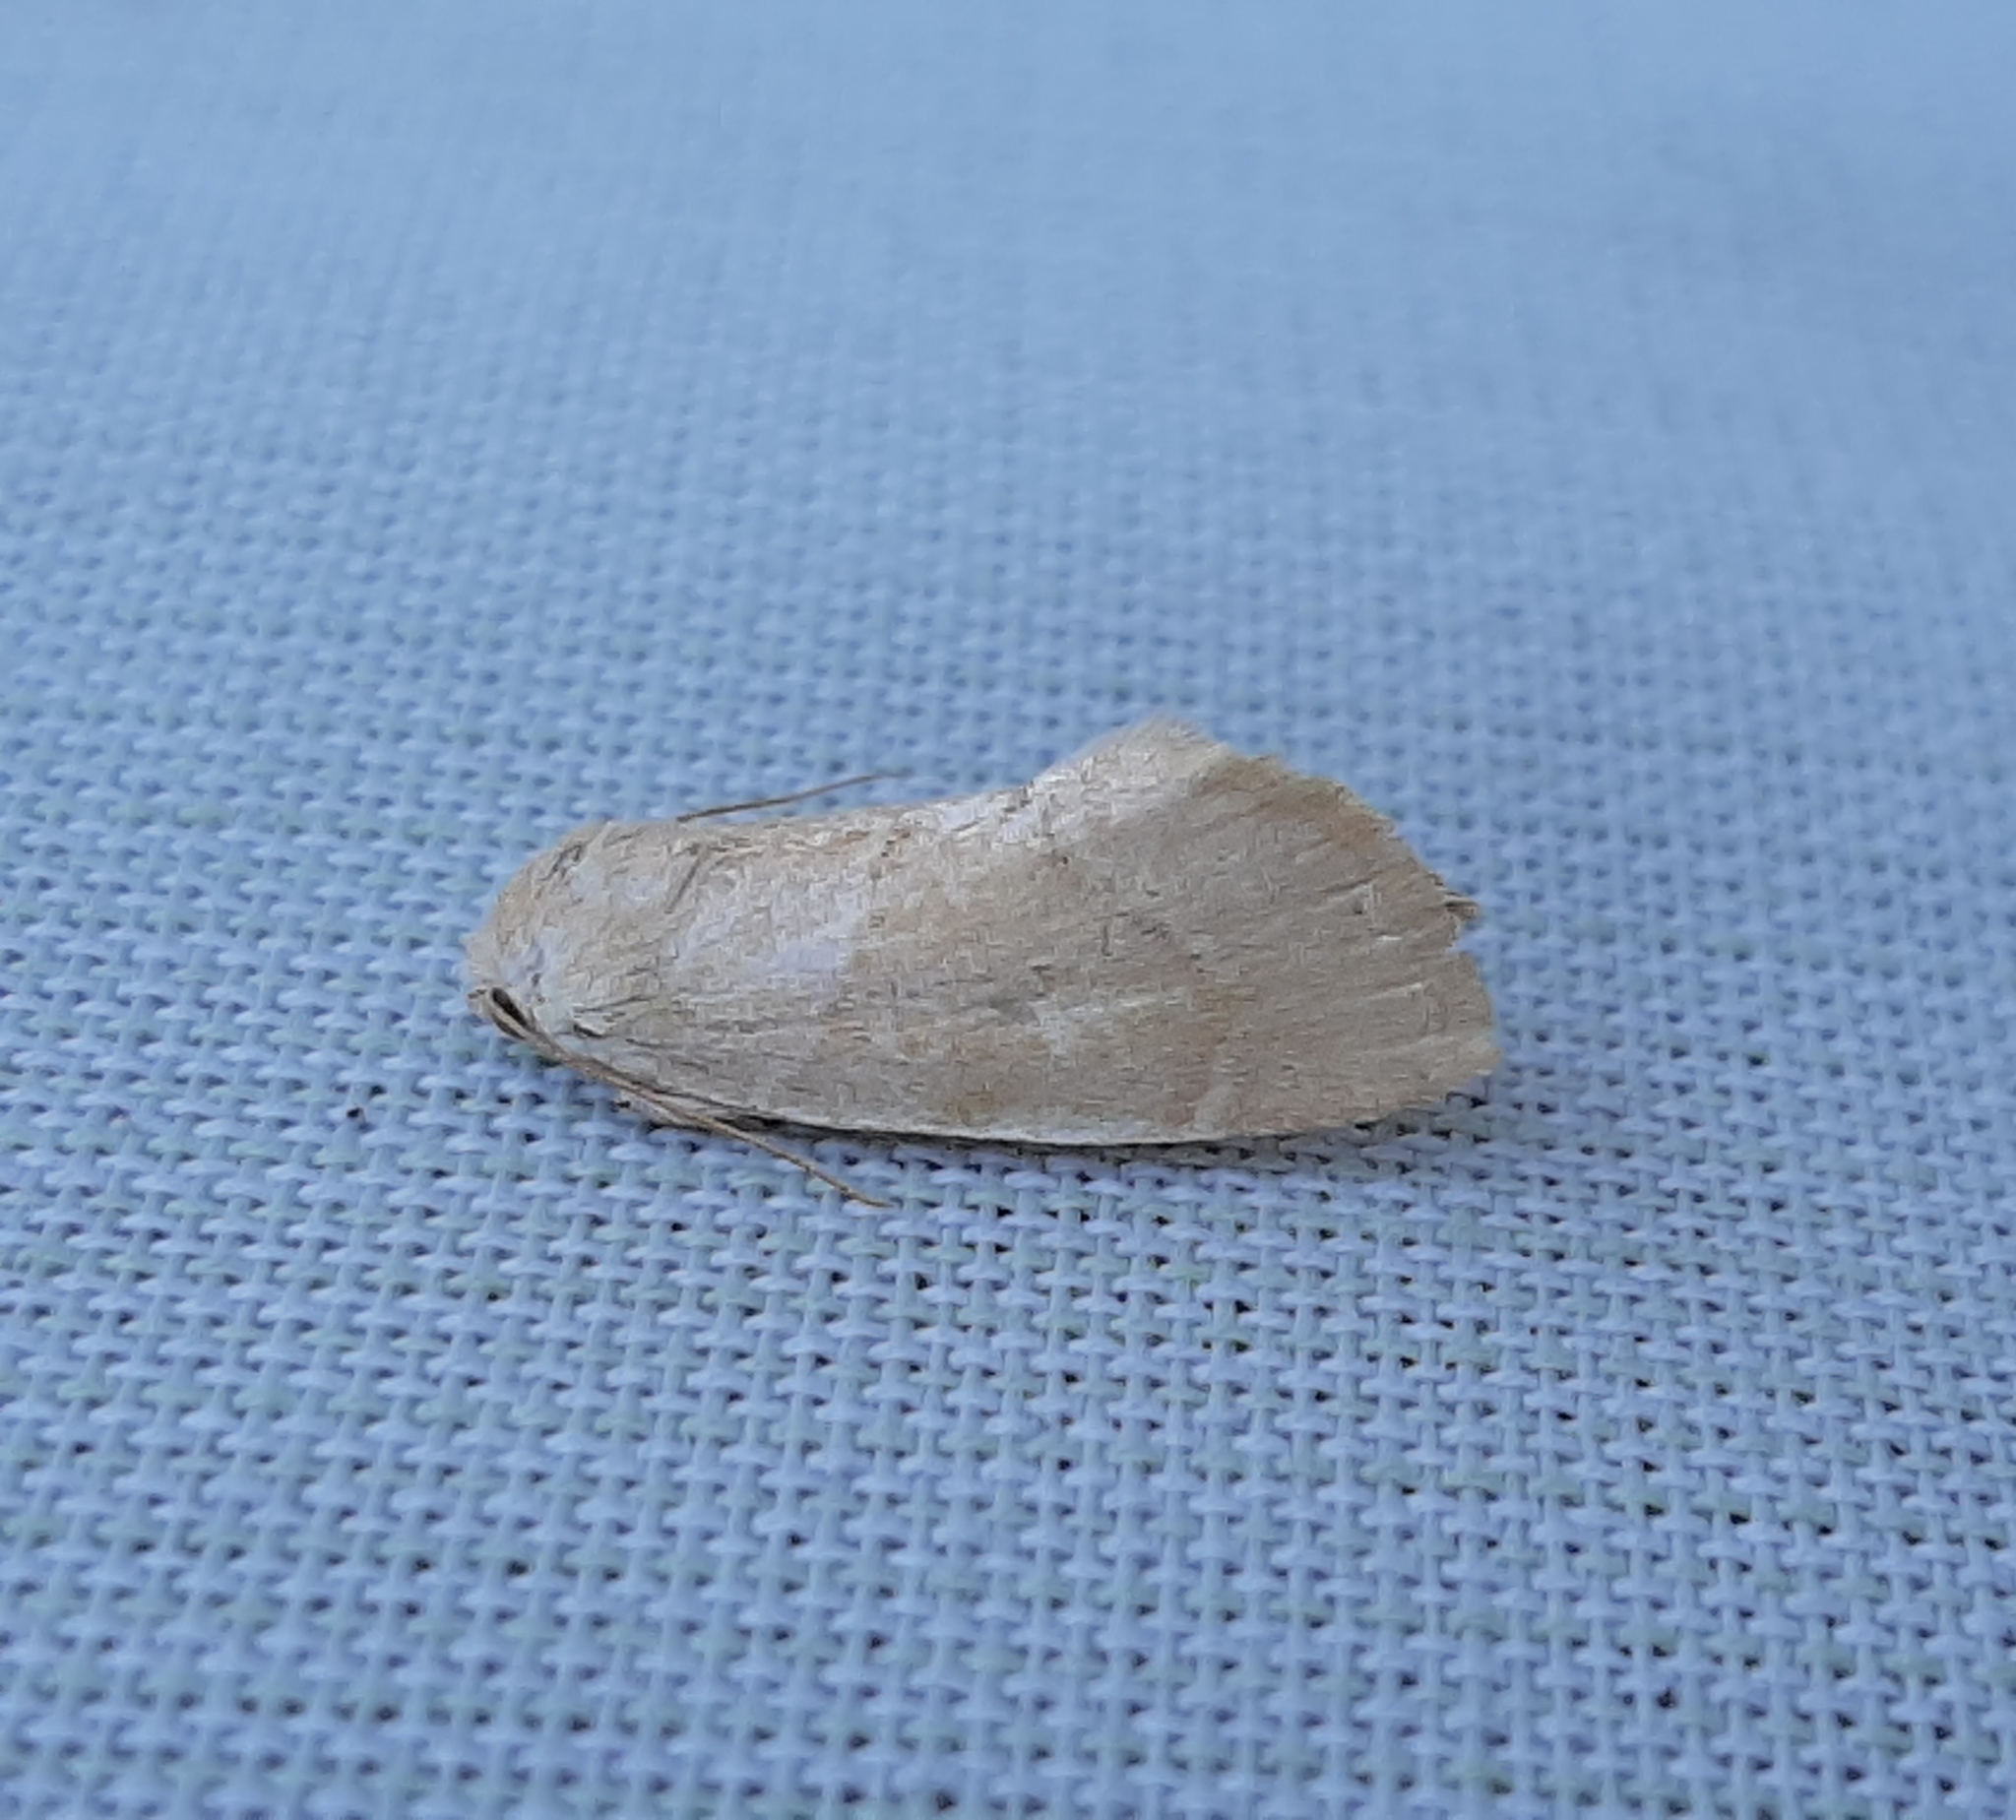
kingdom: Animalia
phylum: Arthropoda
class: Insecta
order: Lepidoptera
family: Noctuidae
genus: Cosmia
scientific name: Cosmia calami
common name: American dun-bar moth
